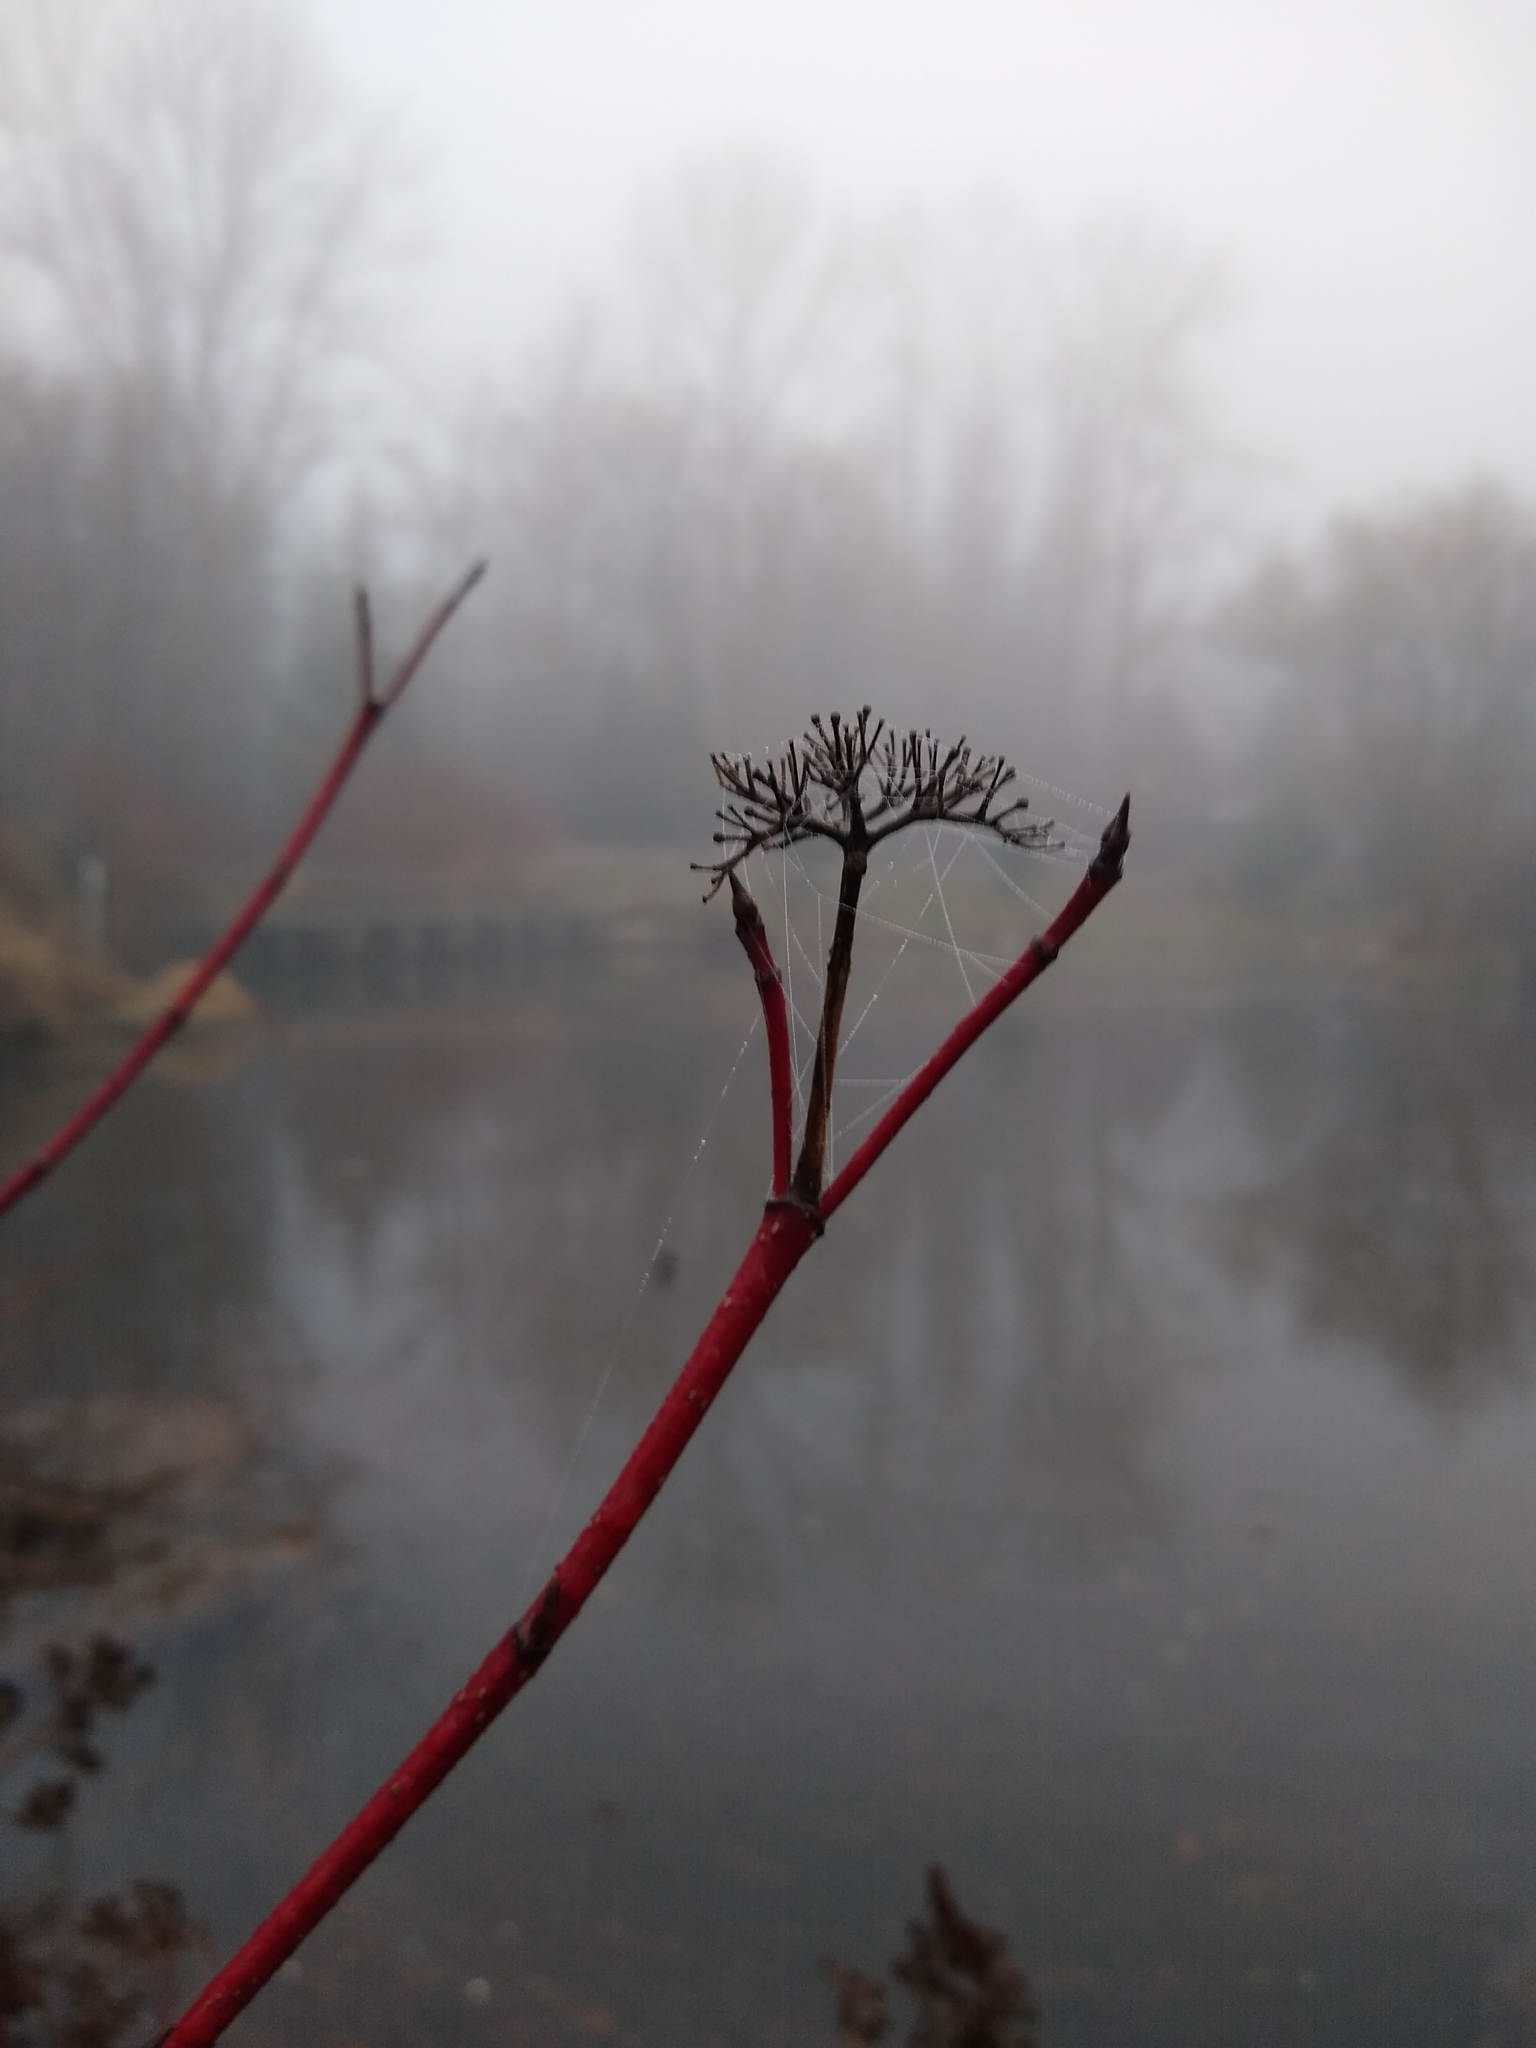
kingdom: Plantae
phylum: Tracheophyta
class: Magnoliopsida
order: Cornales
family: Cornaceae
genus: Cornus
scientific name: Cornus sericea
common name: Red-osier dogwood
